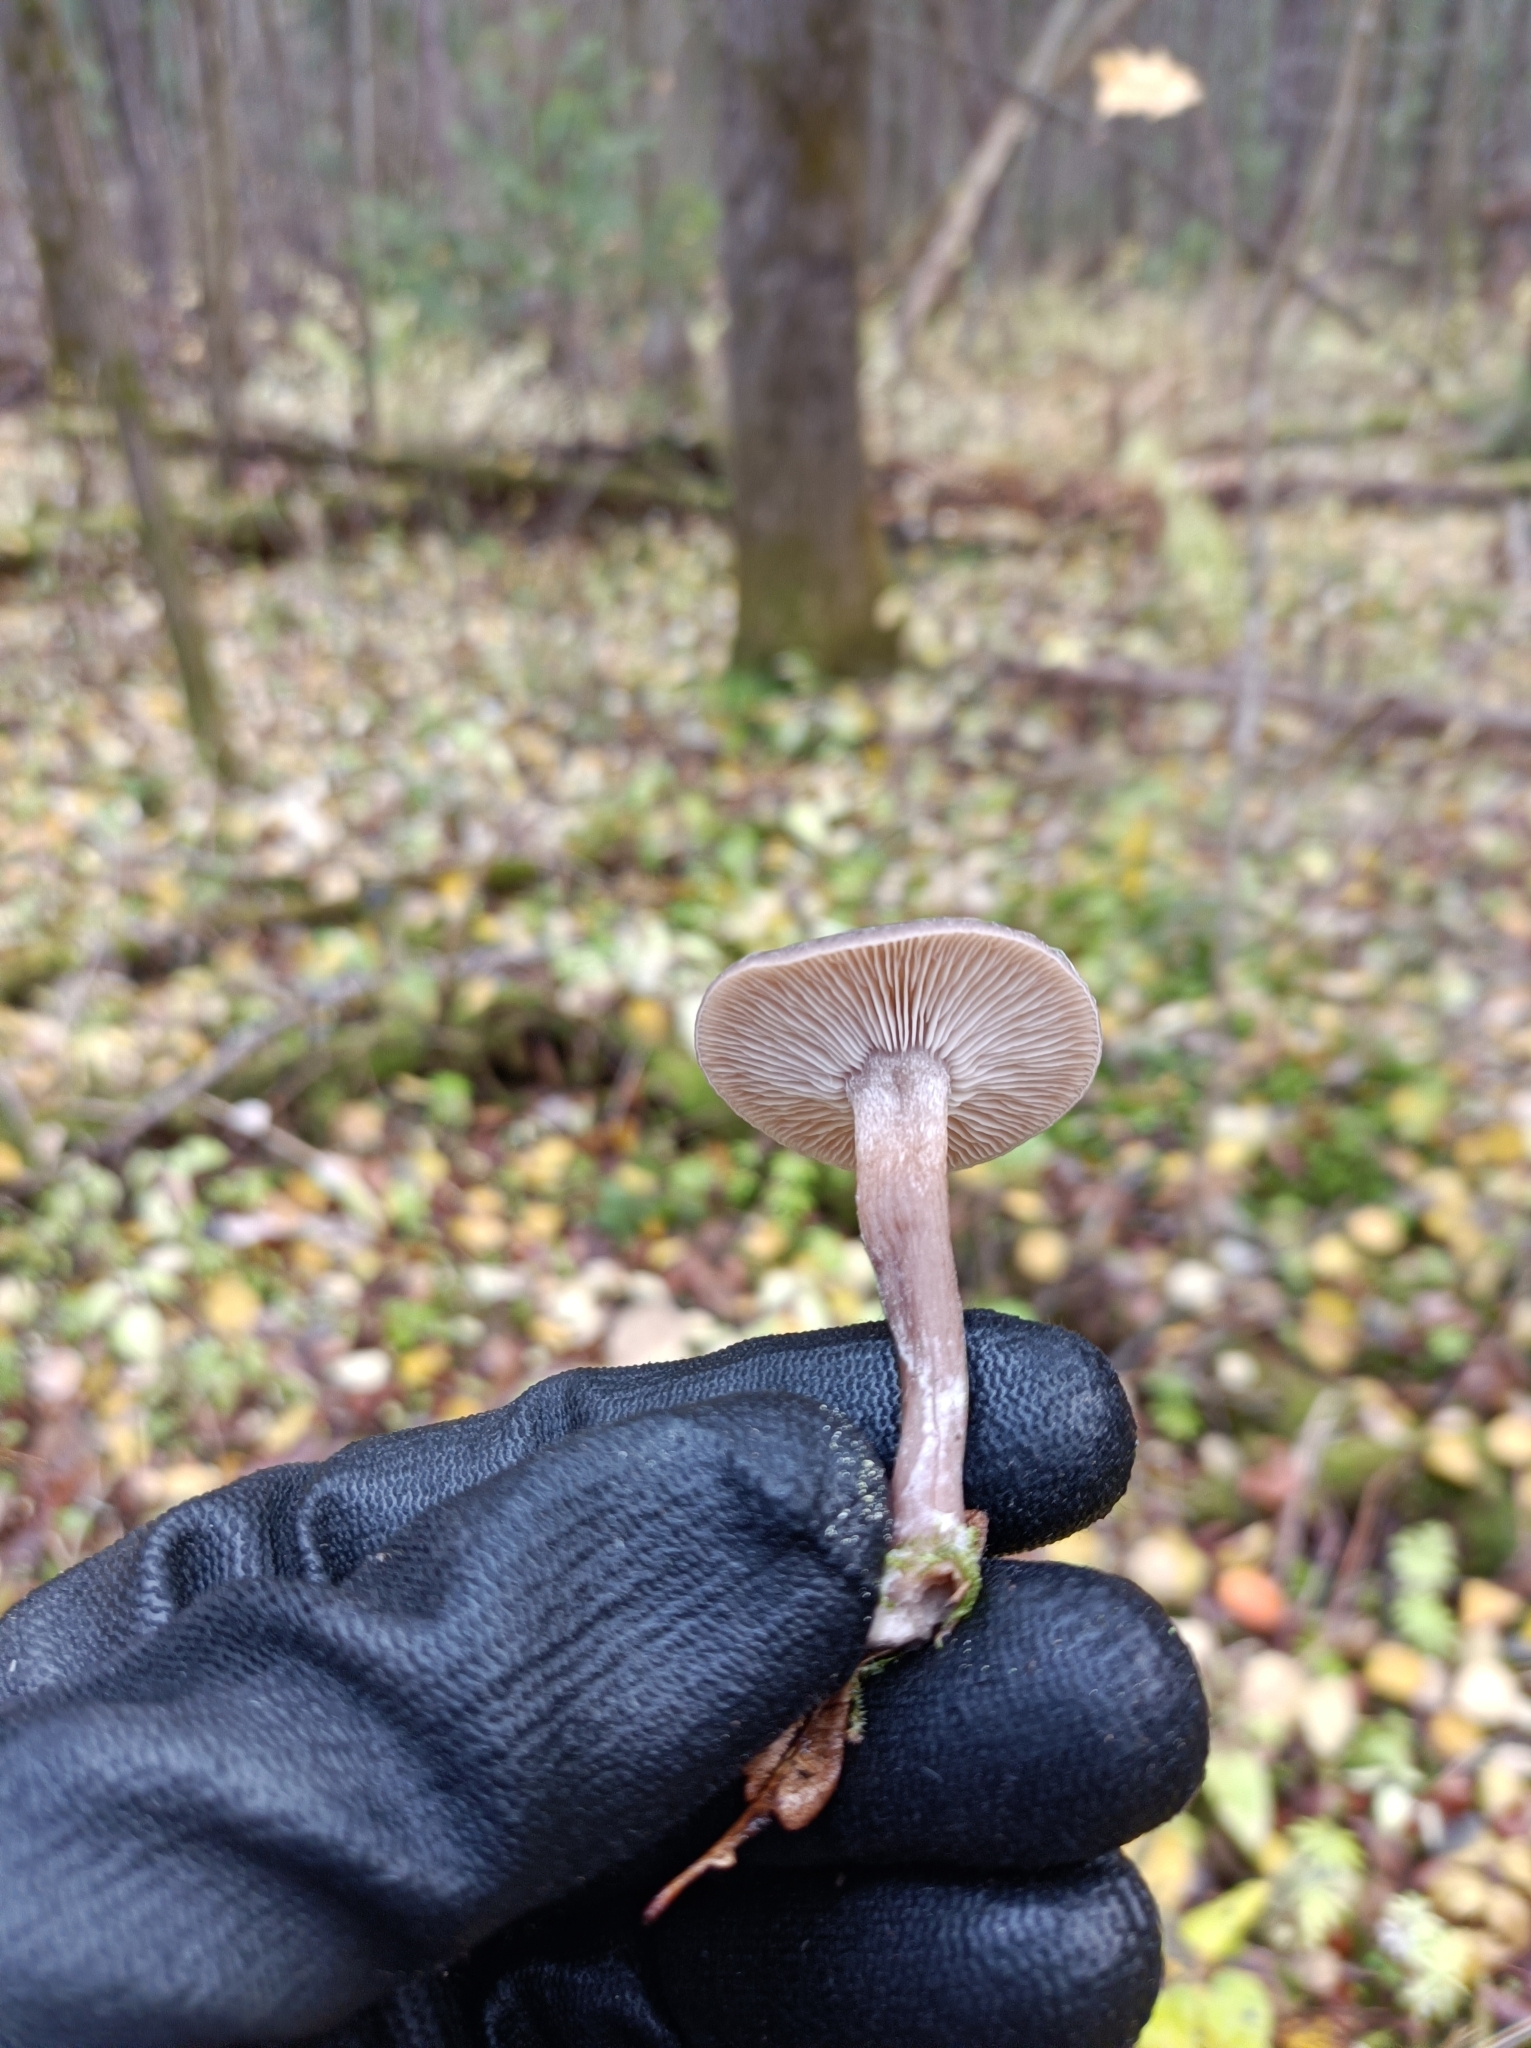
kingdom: Fungi
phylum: Basidiomycota
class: Agaricomycetes
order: Agaricales
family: Pseudoclitocybaceae
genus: Pseudoclitocybe
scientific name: Pseudoclitocybe cyathiformis
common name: Goblet
